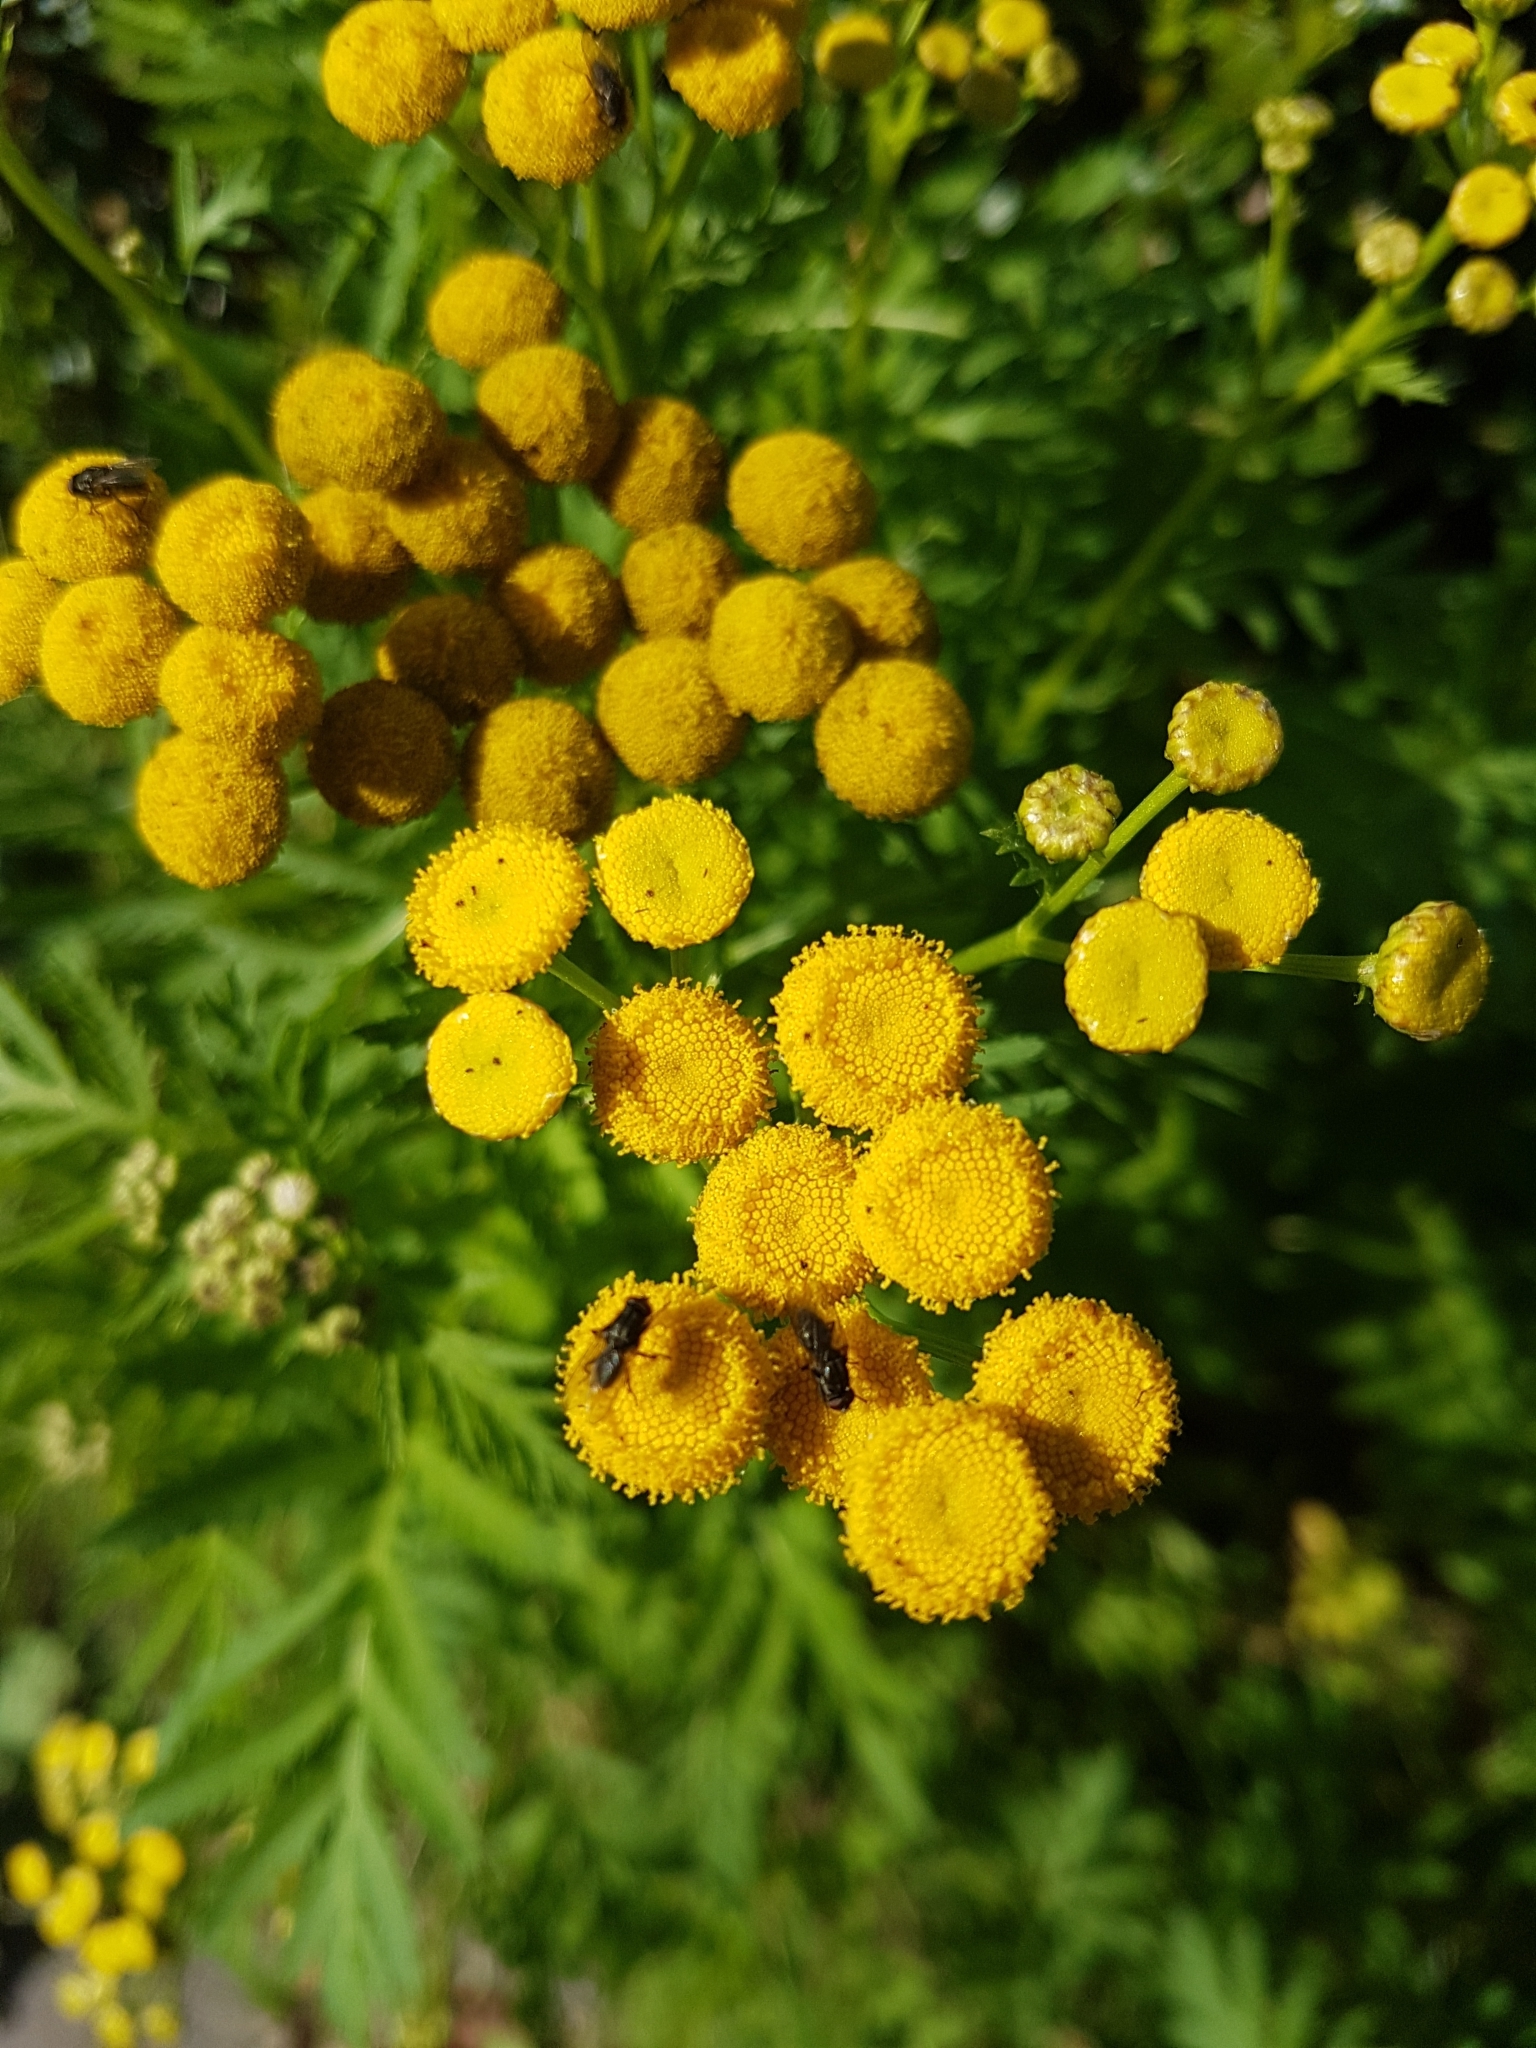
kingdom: Plantae
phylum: Tracheophyta
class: Magnoliopsida
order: Asterales
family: Asteraceae
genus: Tanacetum
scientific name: Tanacetum vulgare
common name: Common tansy
